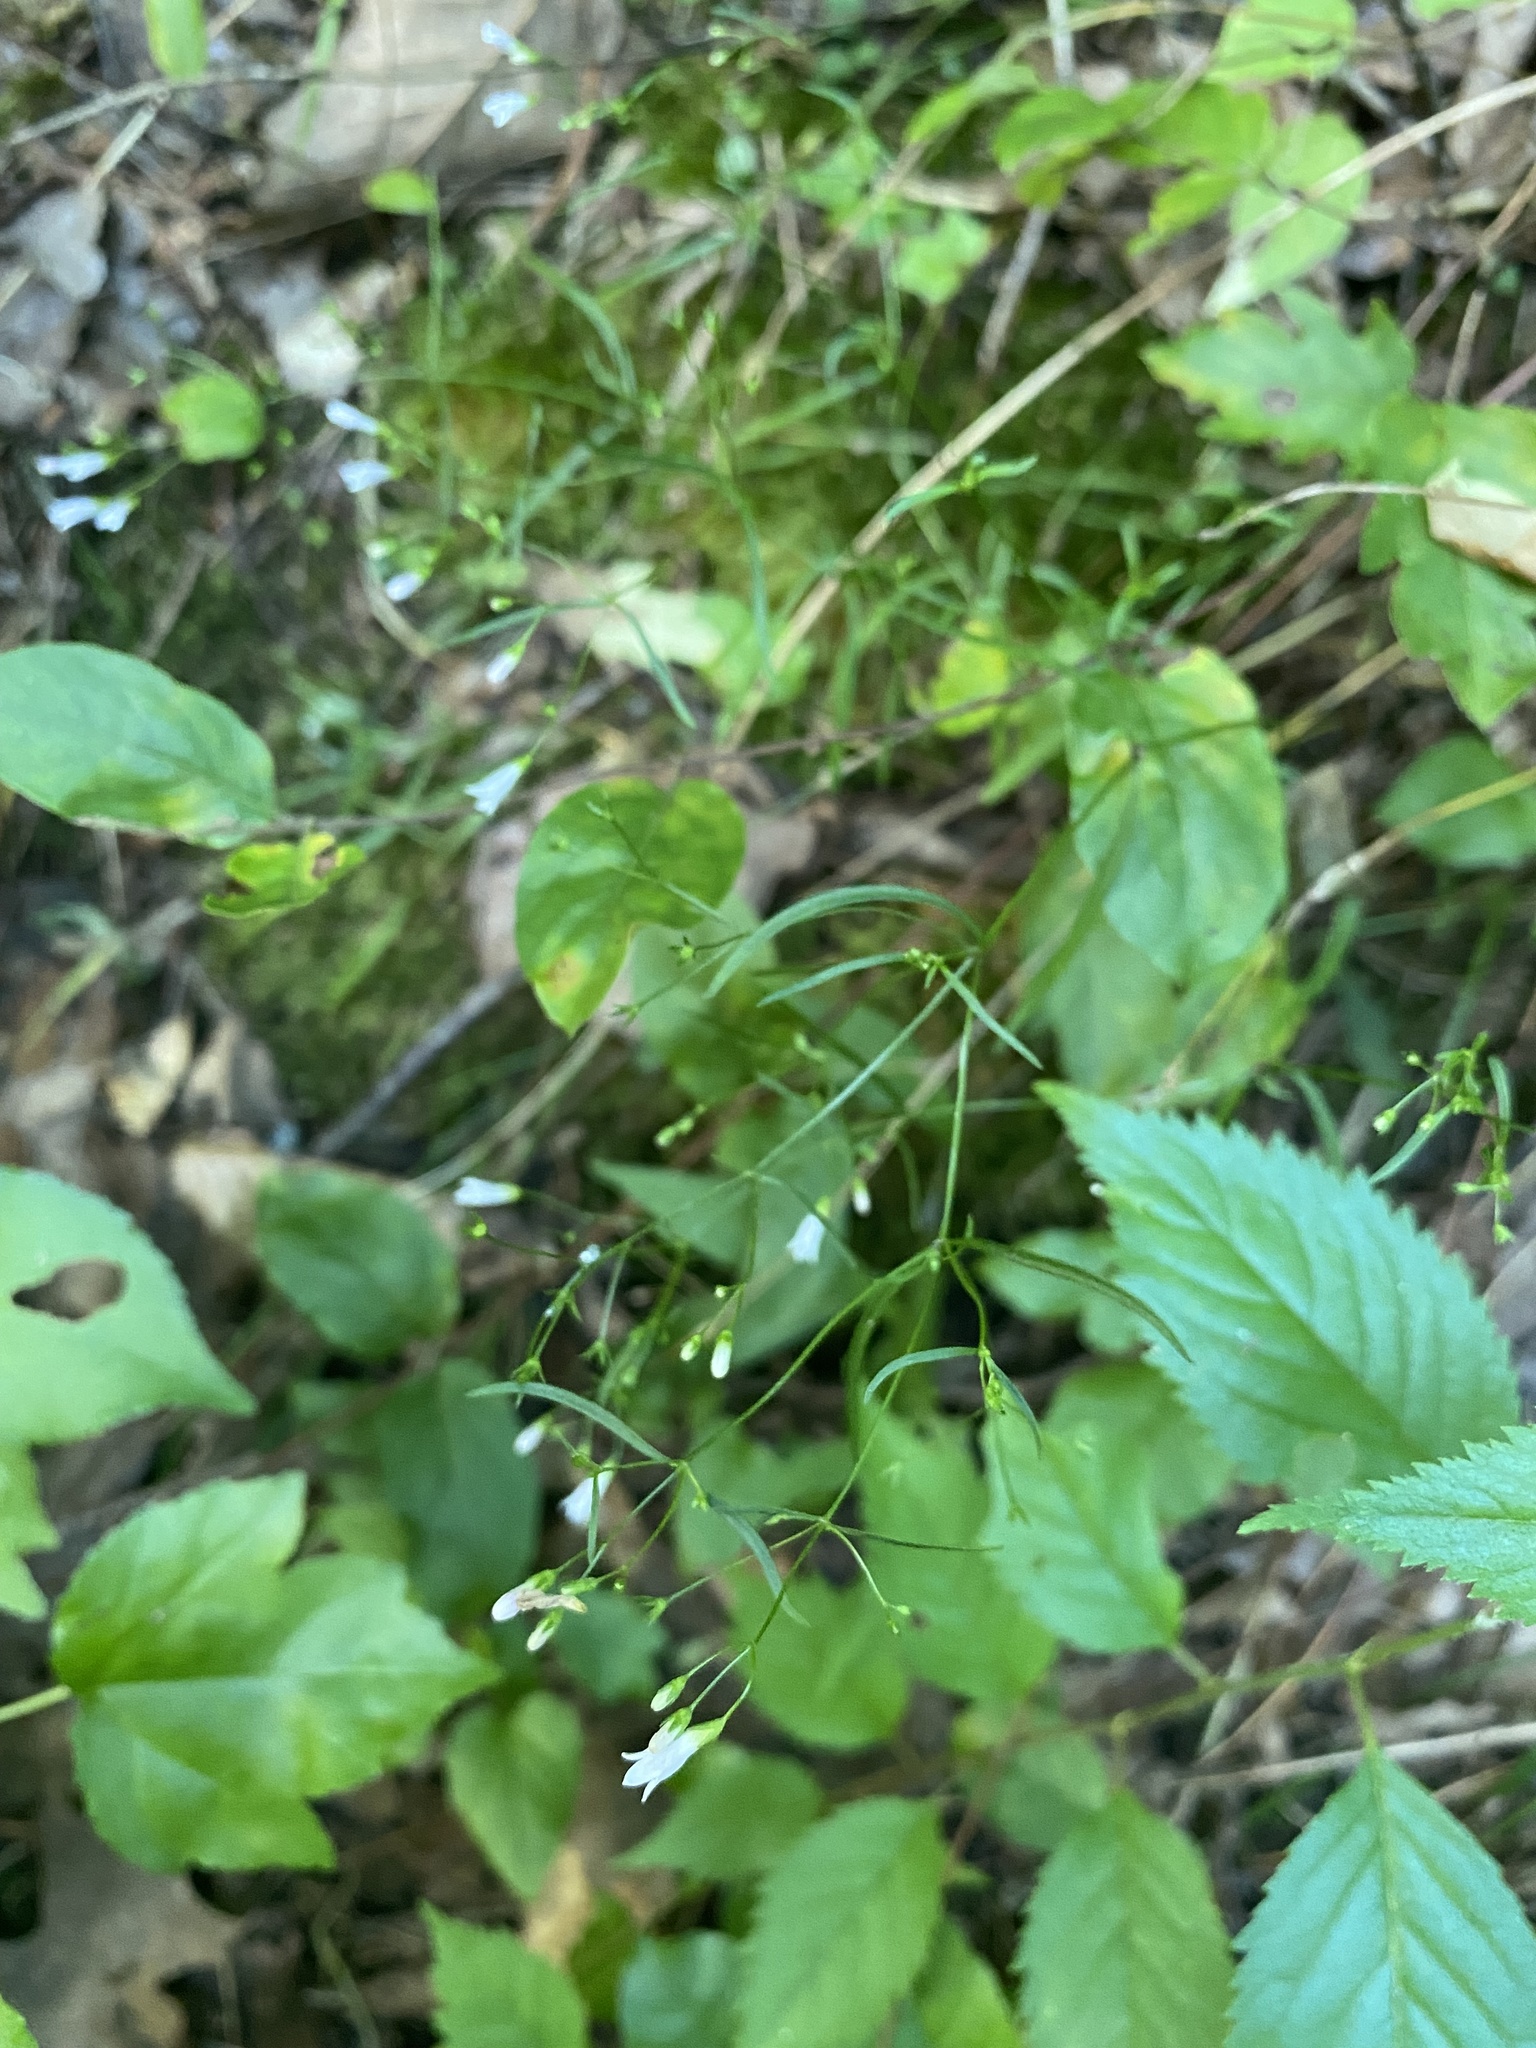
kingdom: Plantae
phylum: Tracheophyta
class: Magnoliopsida
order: Gentianales
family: Rubiaceae
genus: Houstonia
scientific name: Houstonia longifolia
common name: Long-leaved bluets
